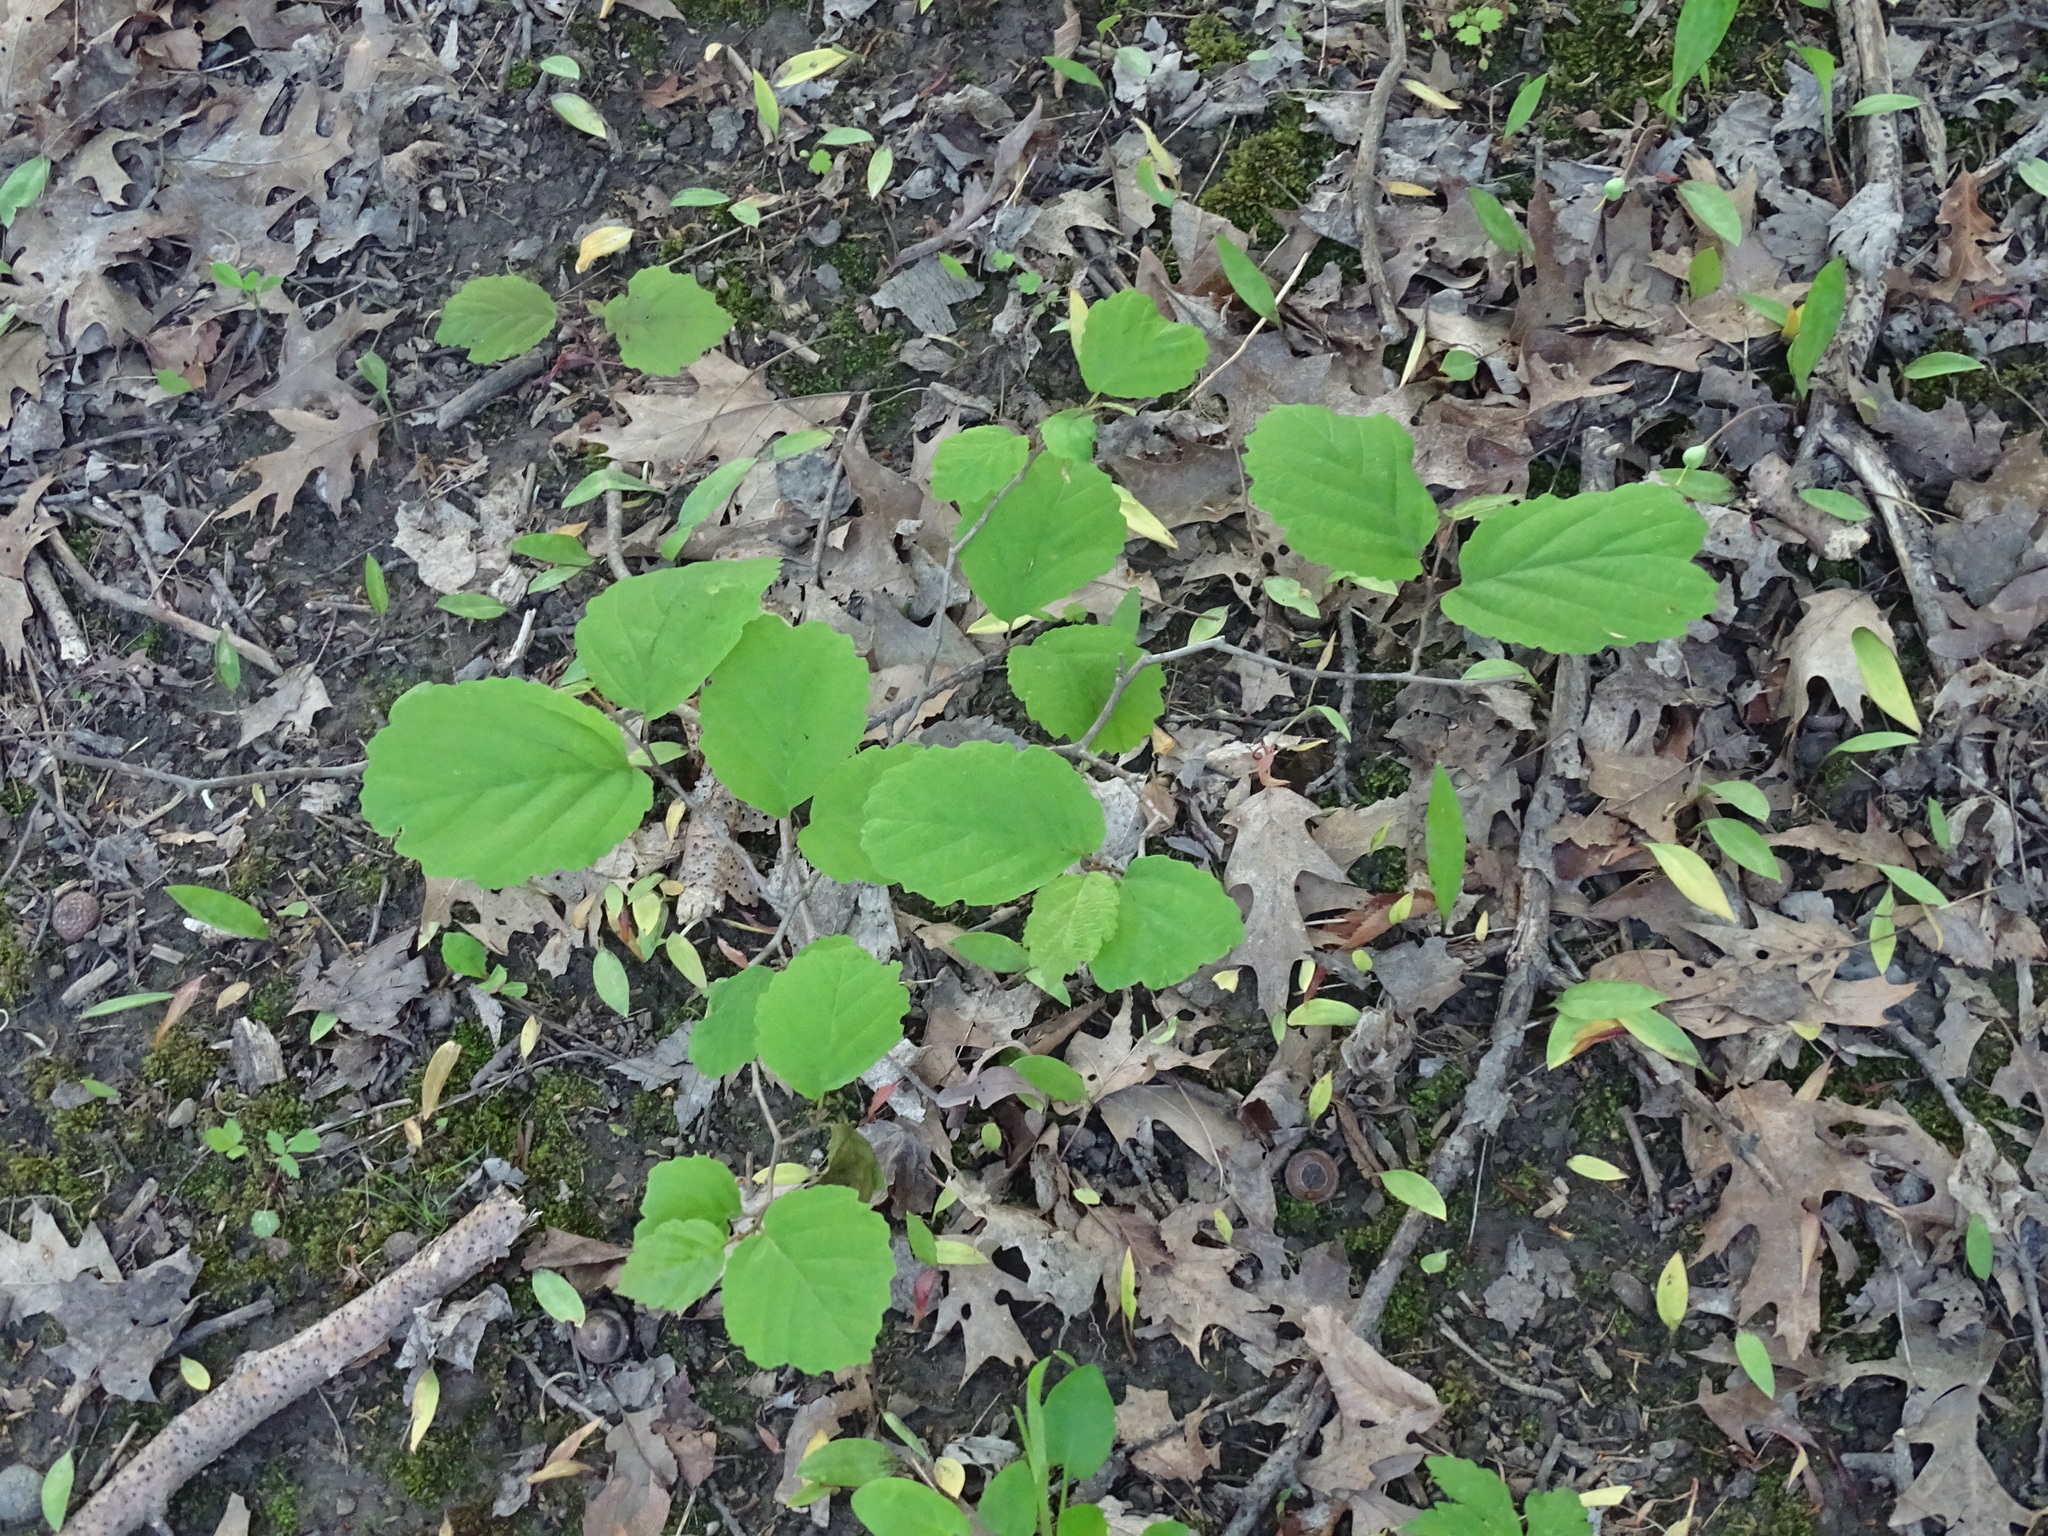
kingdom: Plantae
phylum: Tracheophyta
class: Magnoliopsida
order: Saxifragales
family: Hamamelidaceae
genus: Hamamelis
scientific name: Hamamelis virginiana
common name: Witch-hazel
